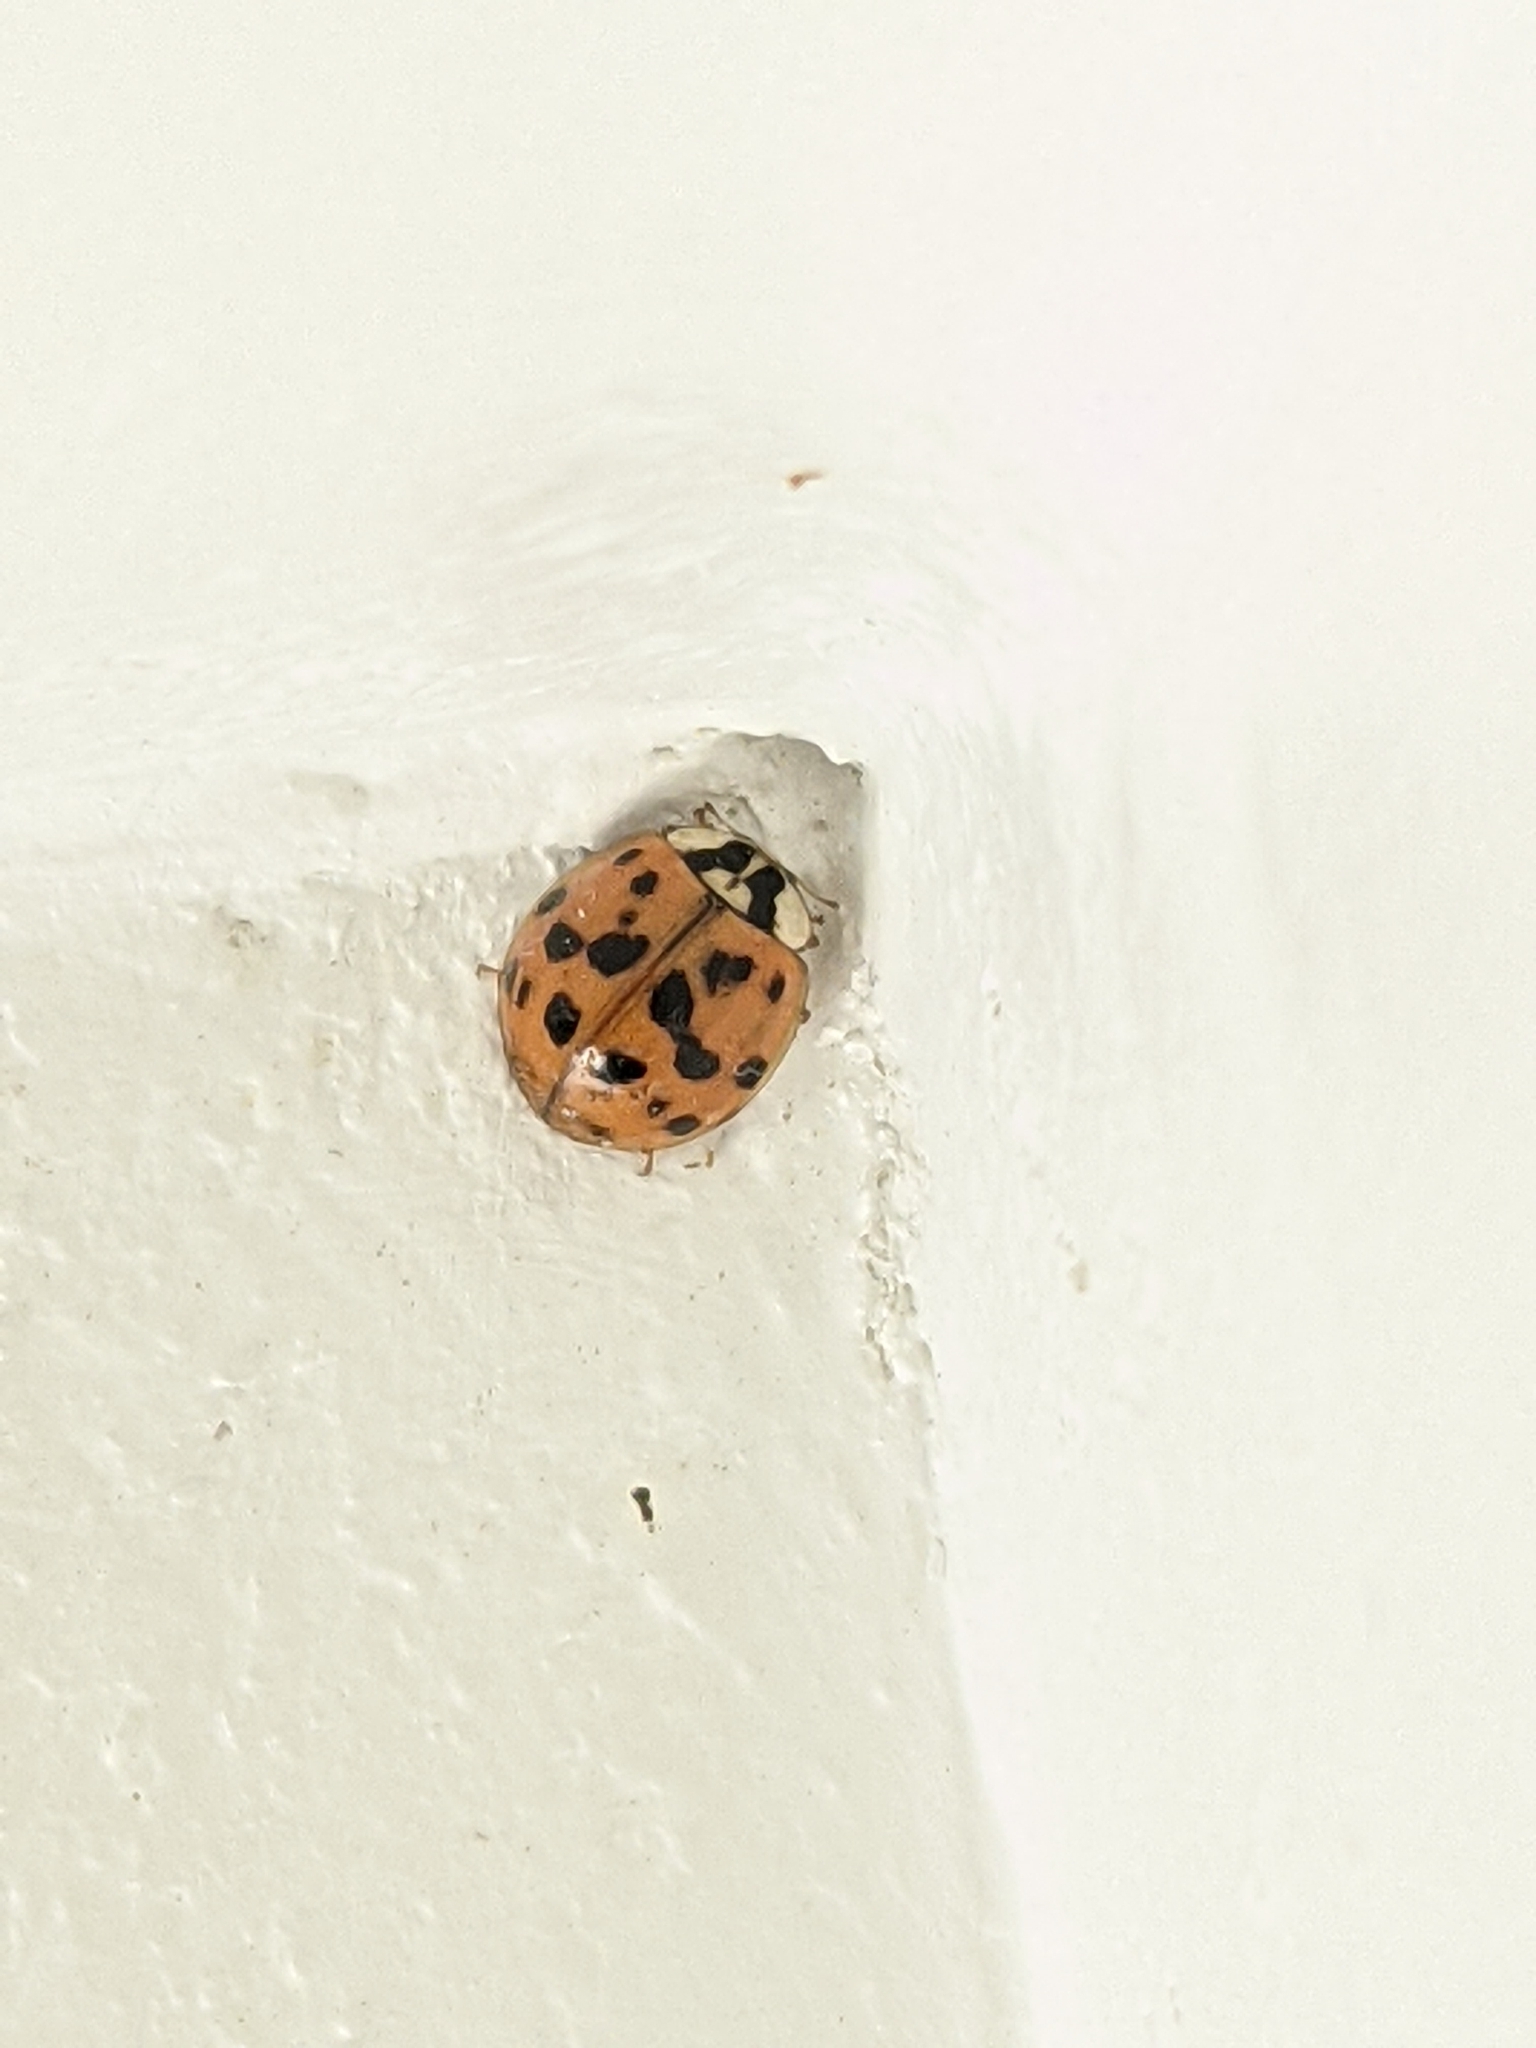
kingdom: Animalia
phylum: Arthropoda
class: Insecta
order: Coleoptera
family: Coccinellidae
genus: Harmonia
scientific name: Harmonia axyridis
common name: Harlequin ladybird
